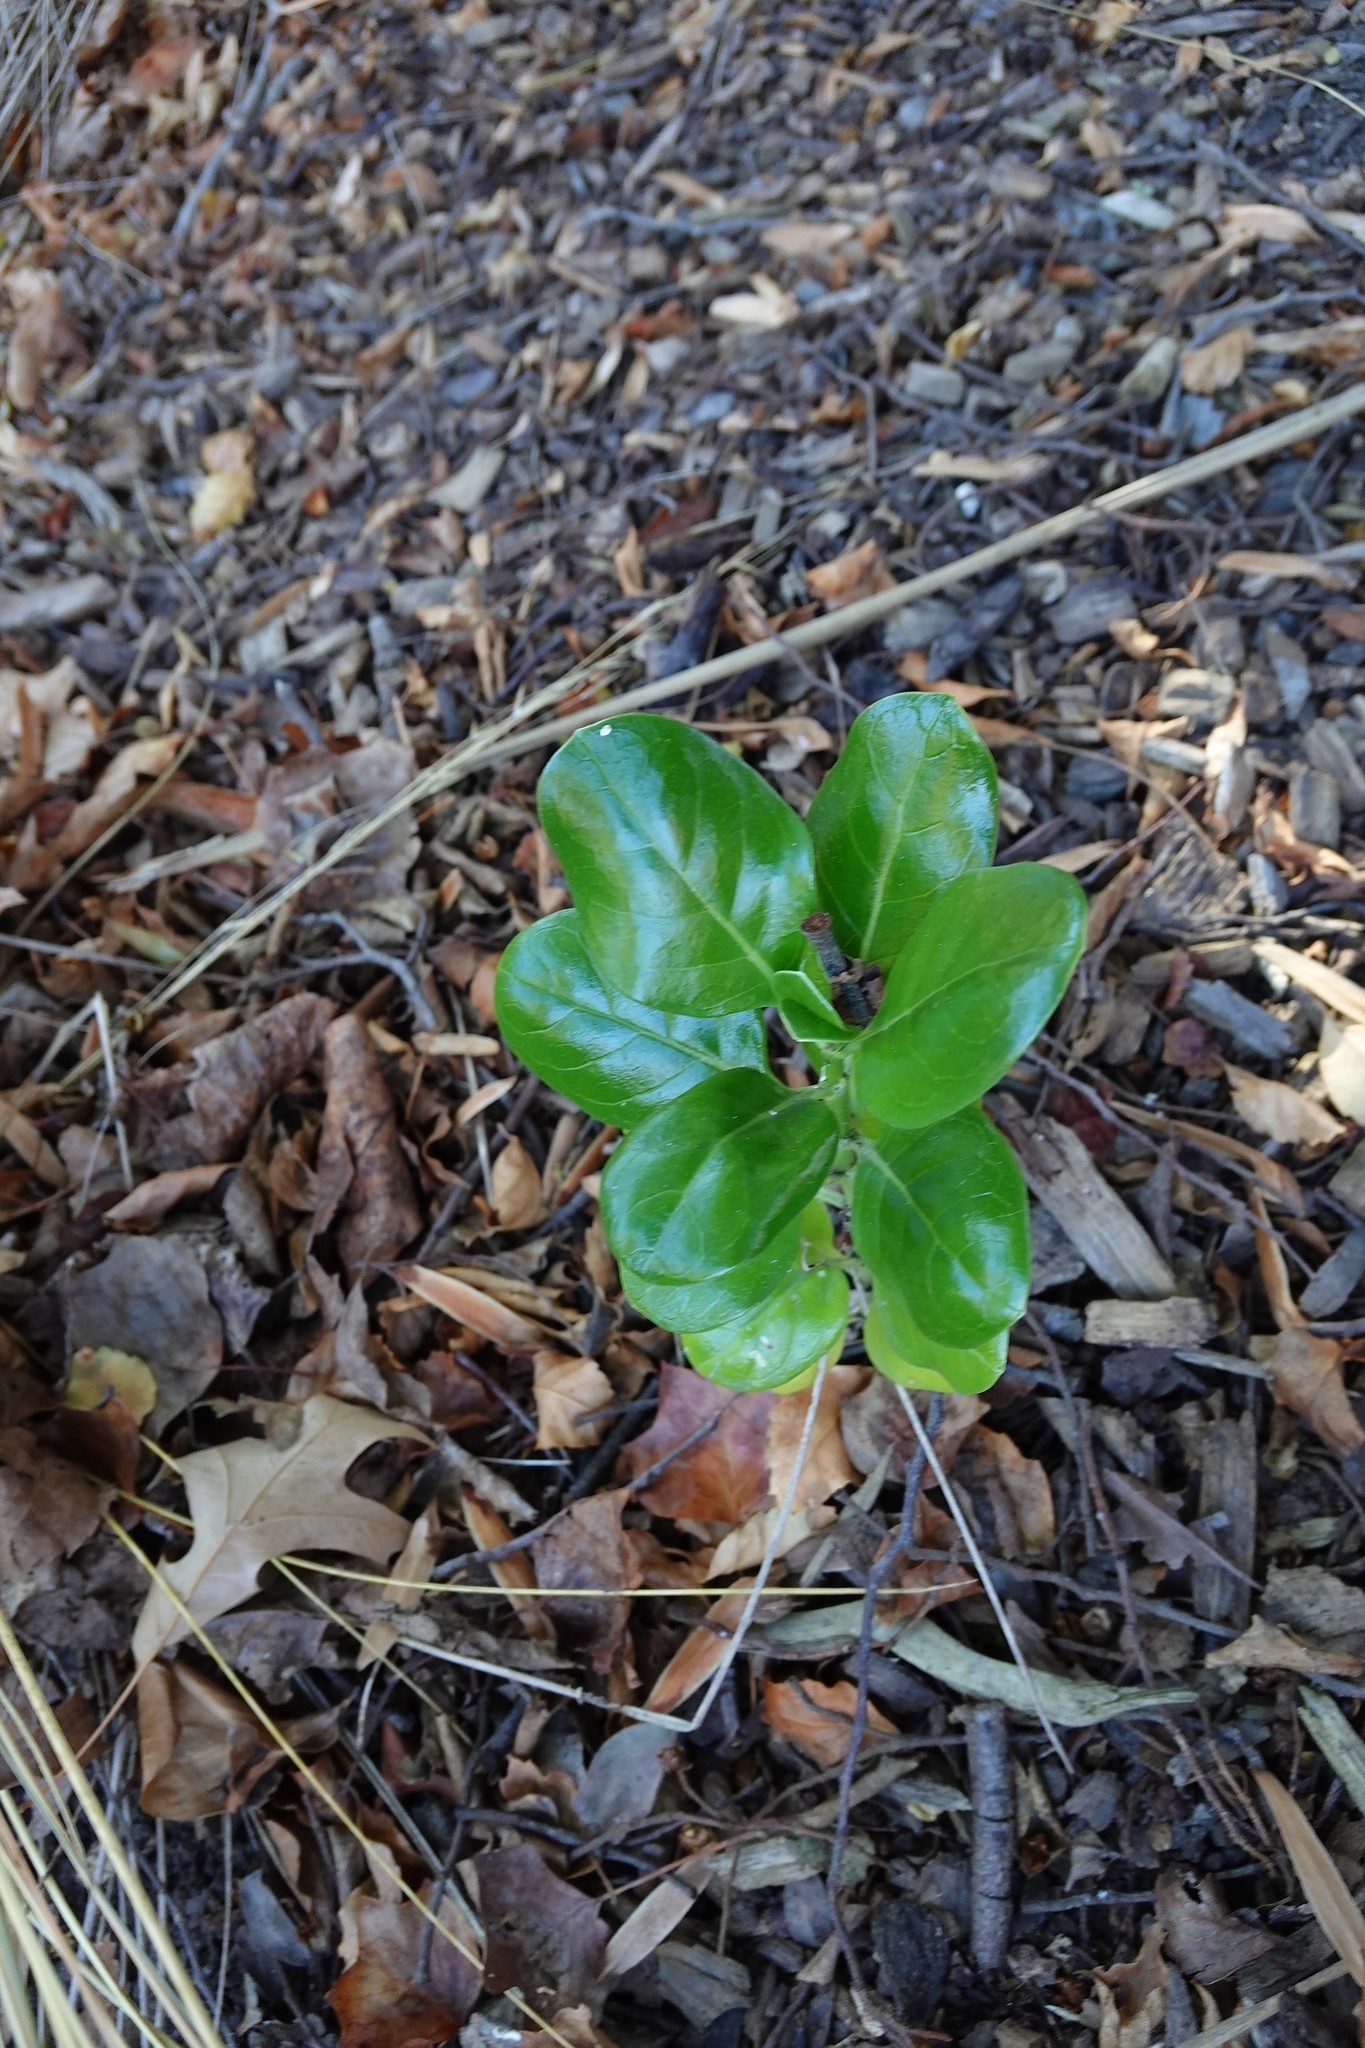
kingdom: Plantae
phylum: Tracheophyta
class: Magnoliopsida
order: Gentianales
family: Rubiaceae
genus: Coprosma
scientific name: Coprosma repens
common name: Tree bedstraw
